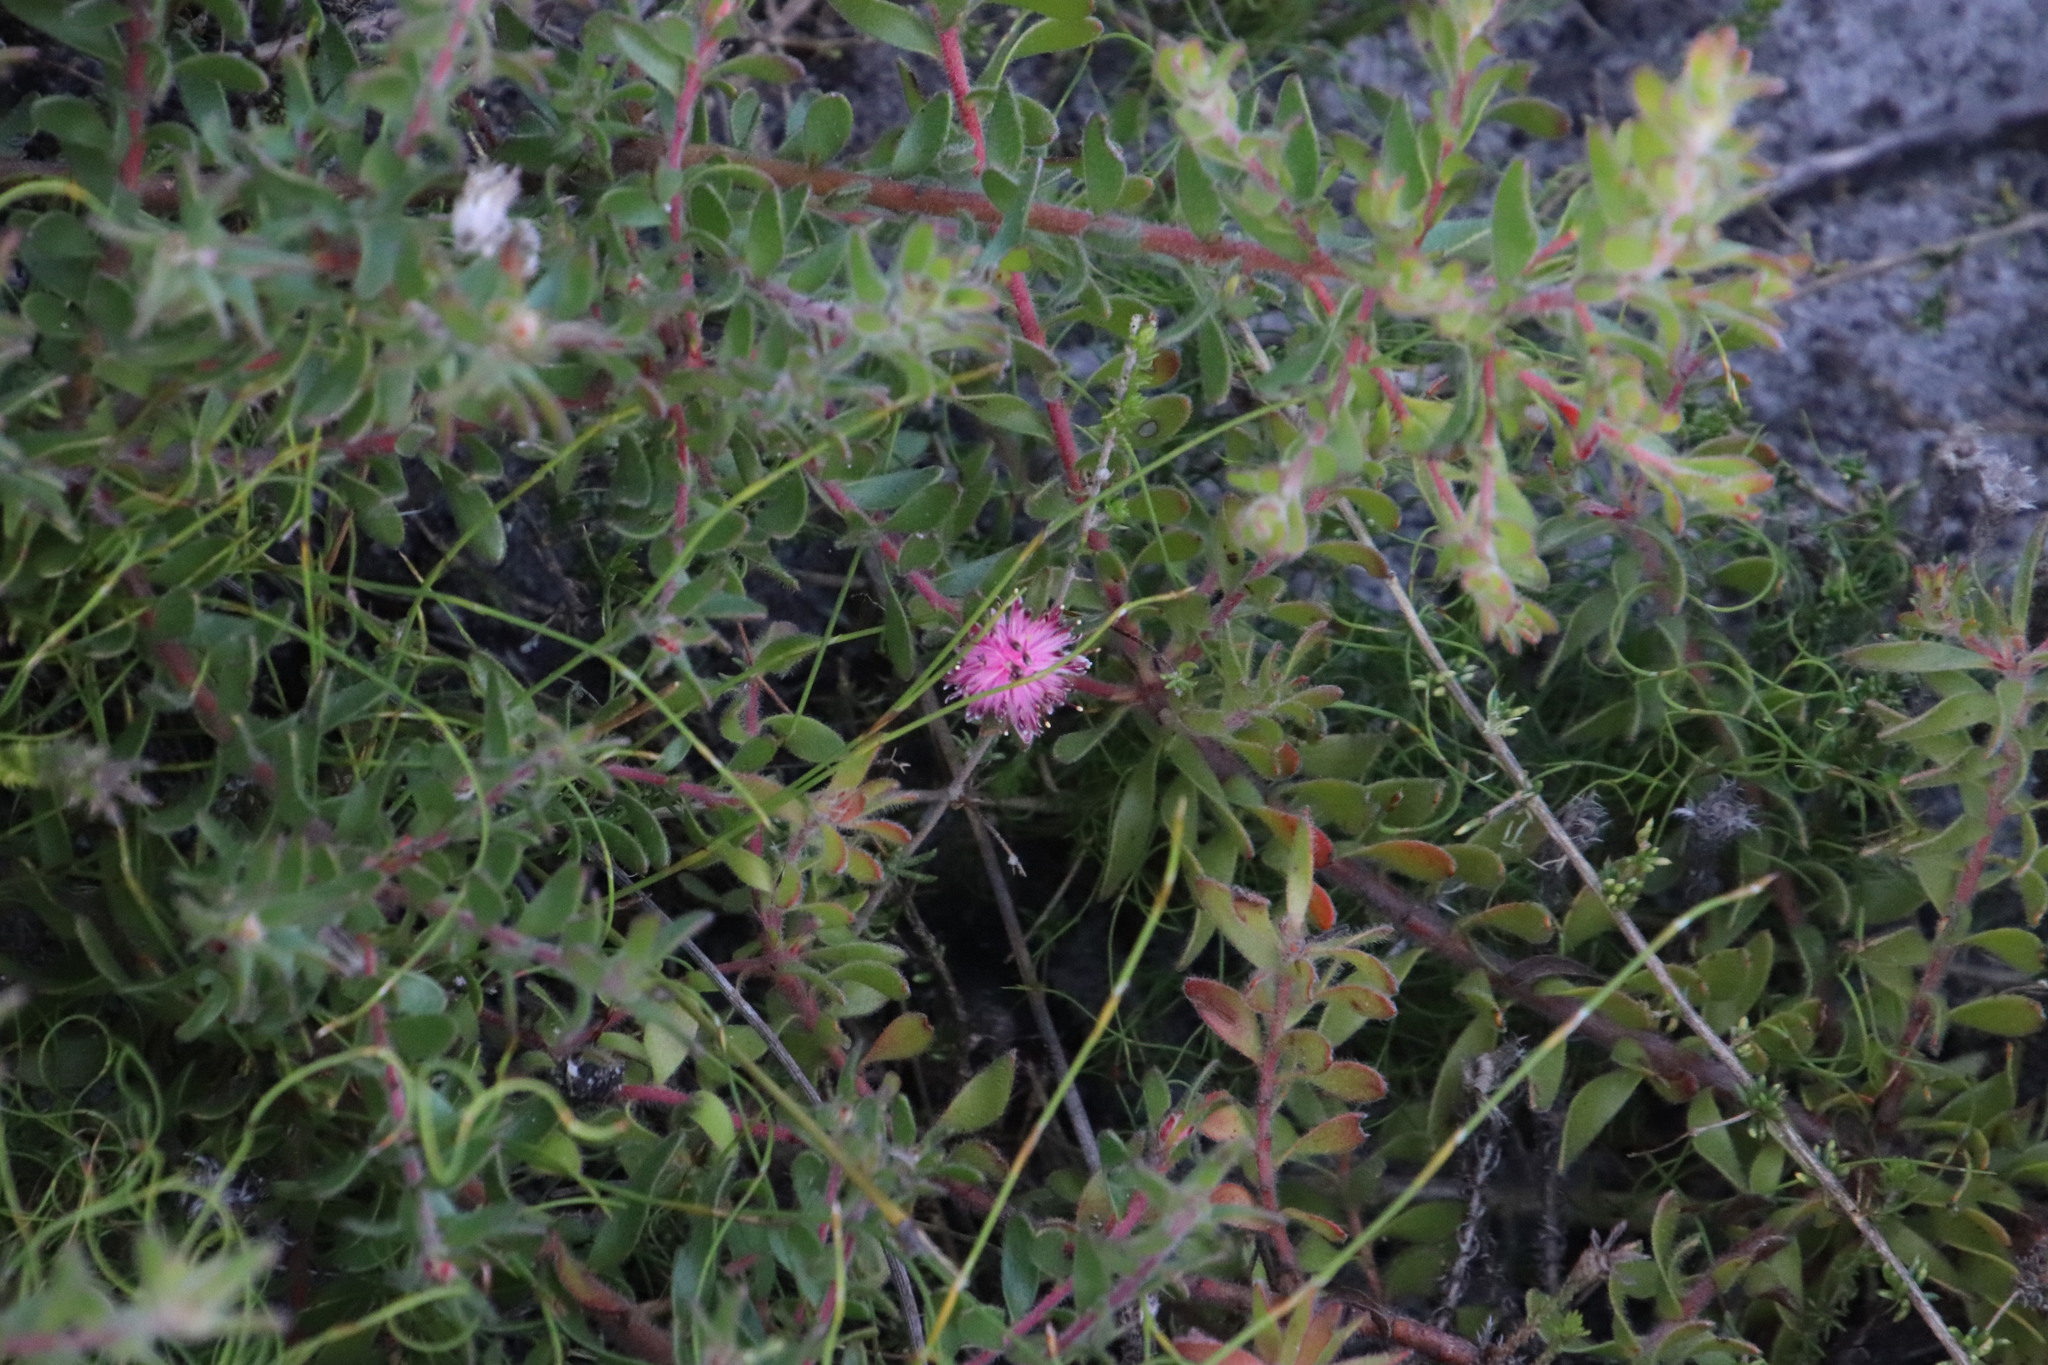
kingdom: Plantae
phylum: Tracheophyta
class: Magnoliopsida
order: Proteales
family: Proteaceae
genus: Diastella
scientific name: Diastella divaricata
